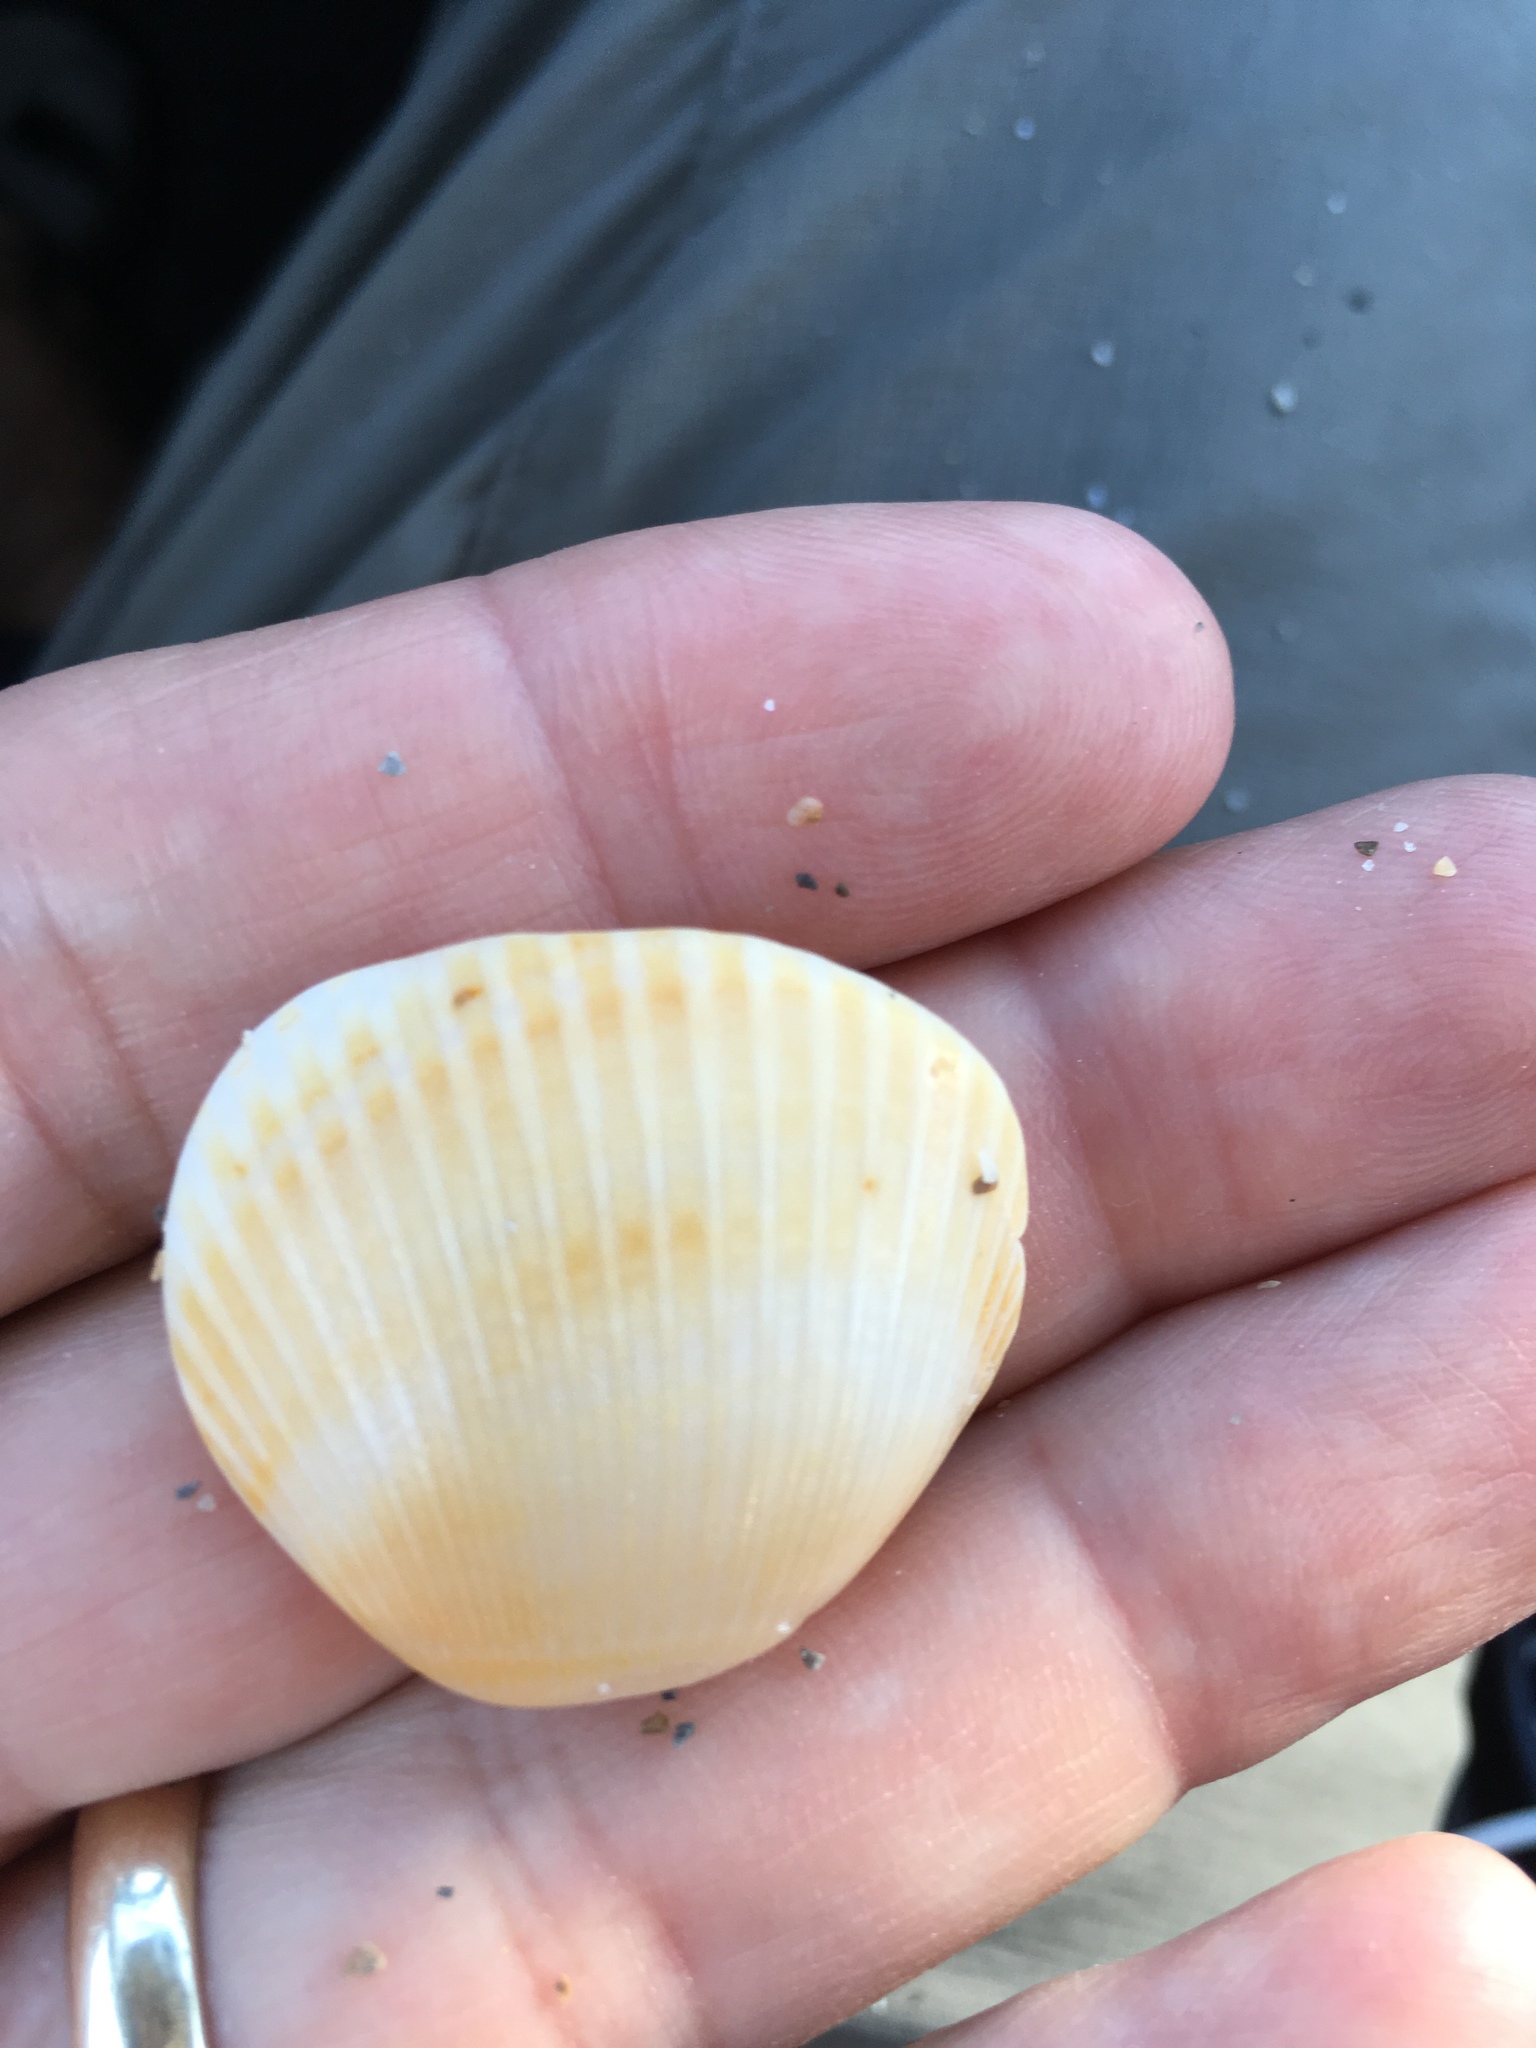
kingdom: Animalia
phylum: Mollusca
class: Bivalvia
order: Arcida
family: Glycymerididae
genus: Glycymeris
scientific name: Glycymeris spectralis
